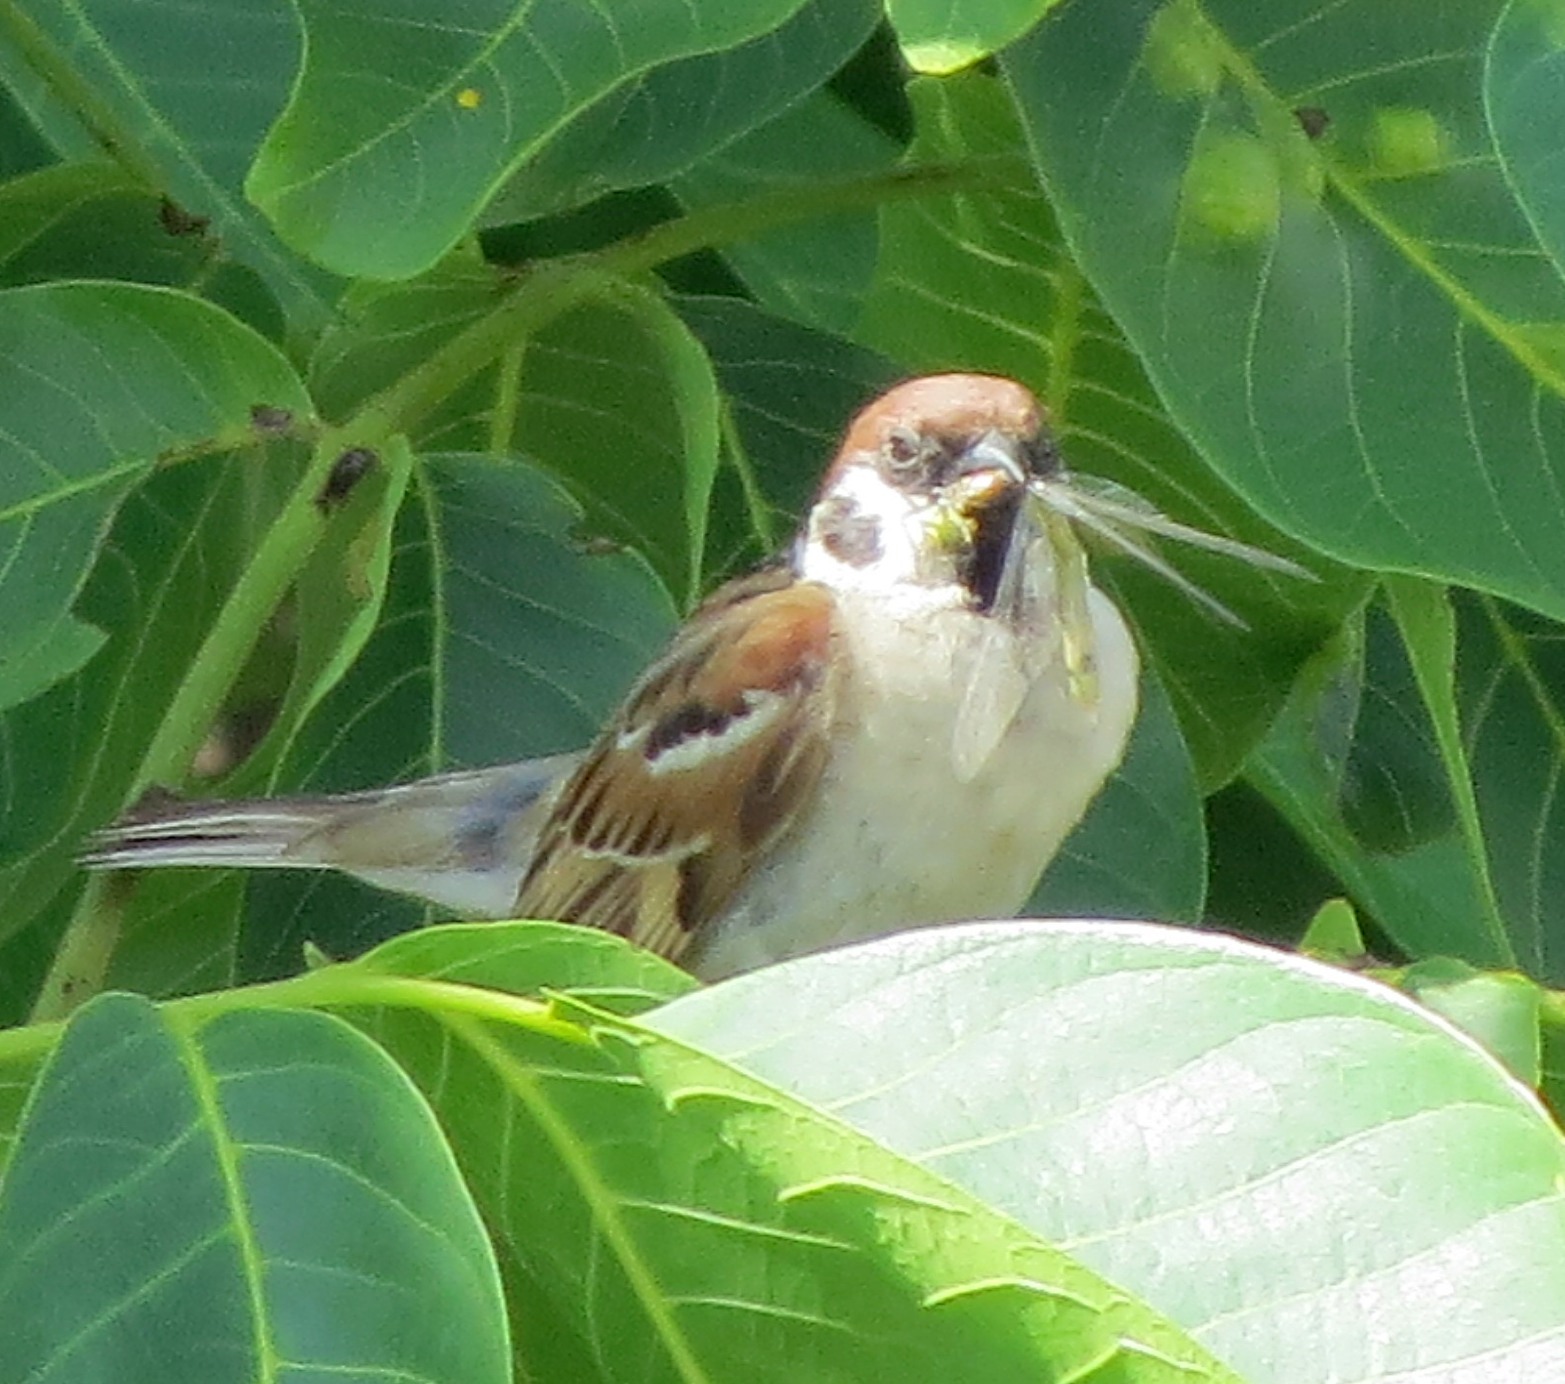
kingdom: Animalia
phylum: Chordata
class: Aves
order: Passeriformes
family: Passeridae
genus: Passer
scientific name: Passer montanus
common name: Eurasian tree sparrow
